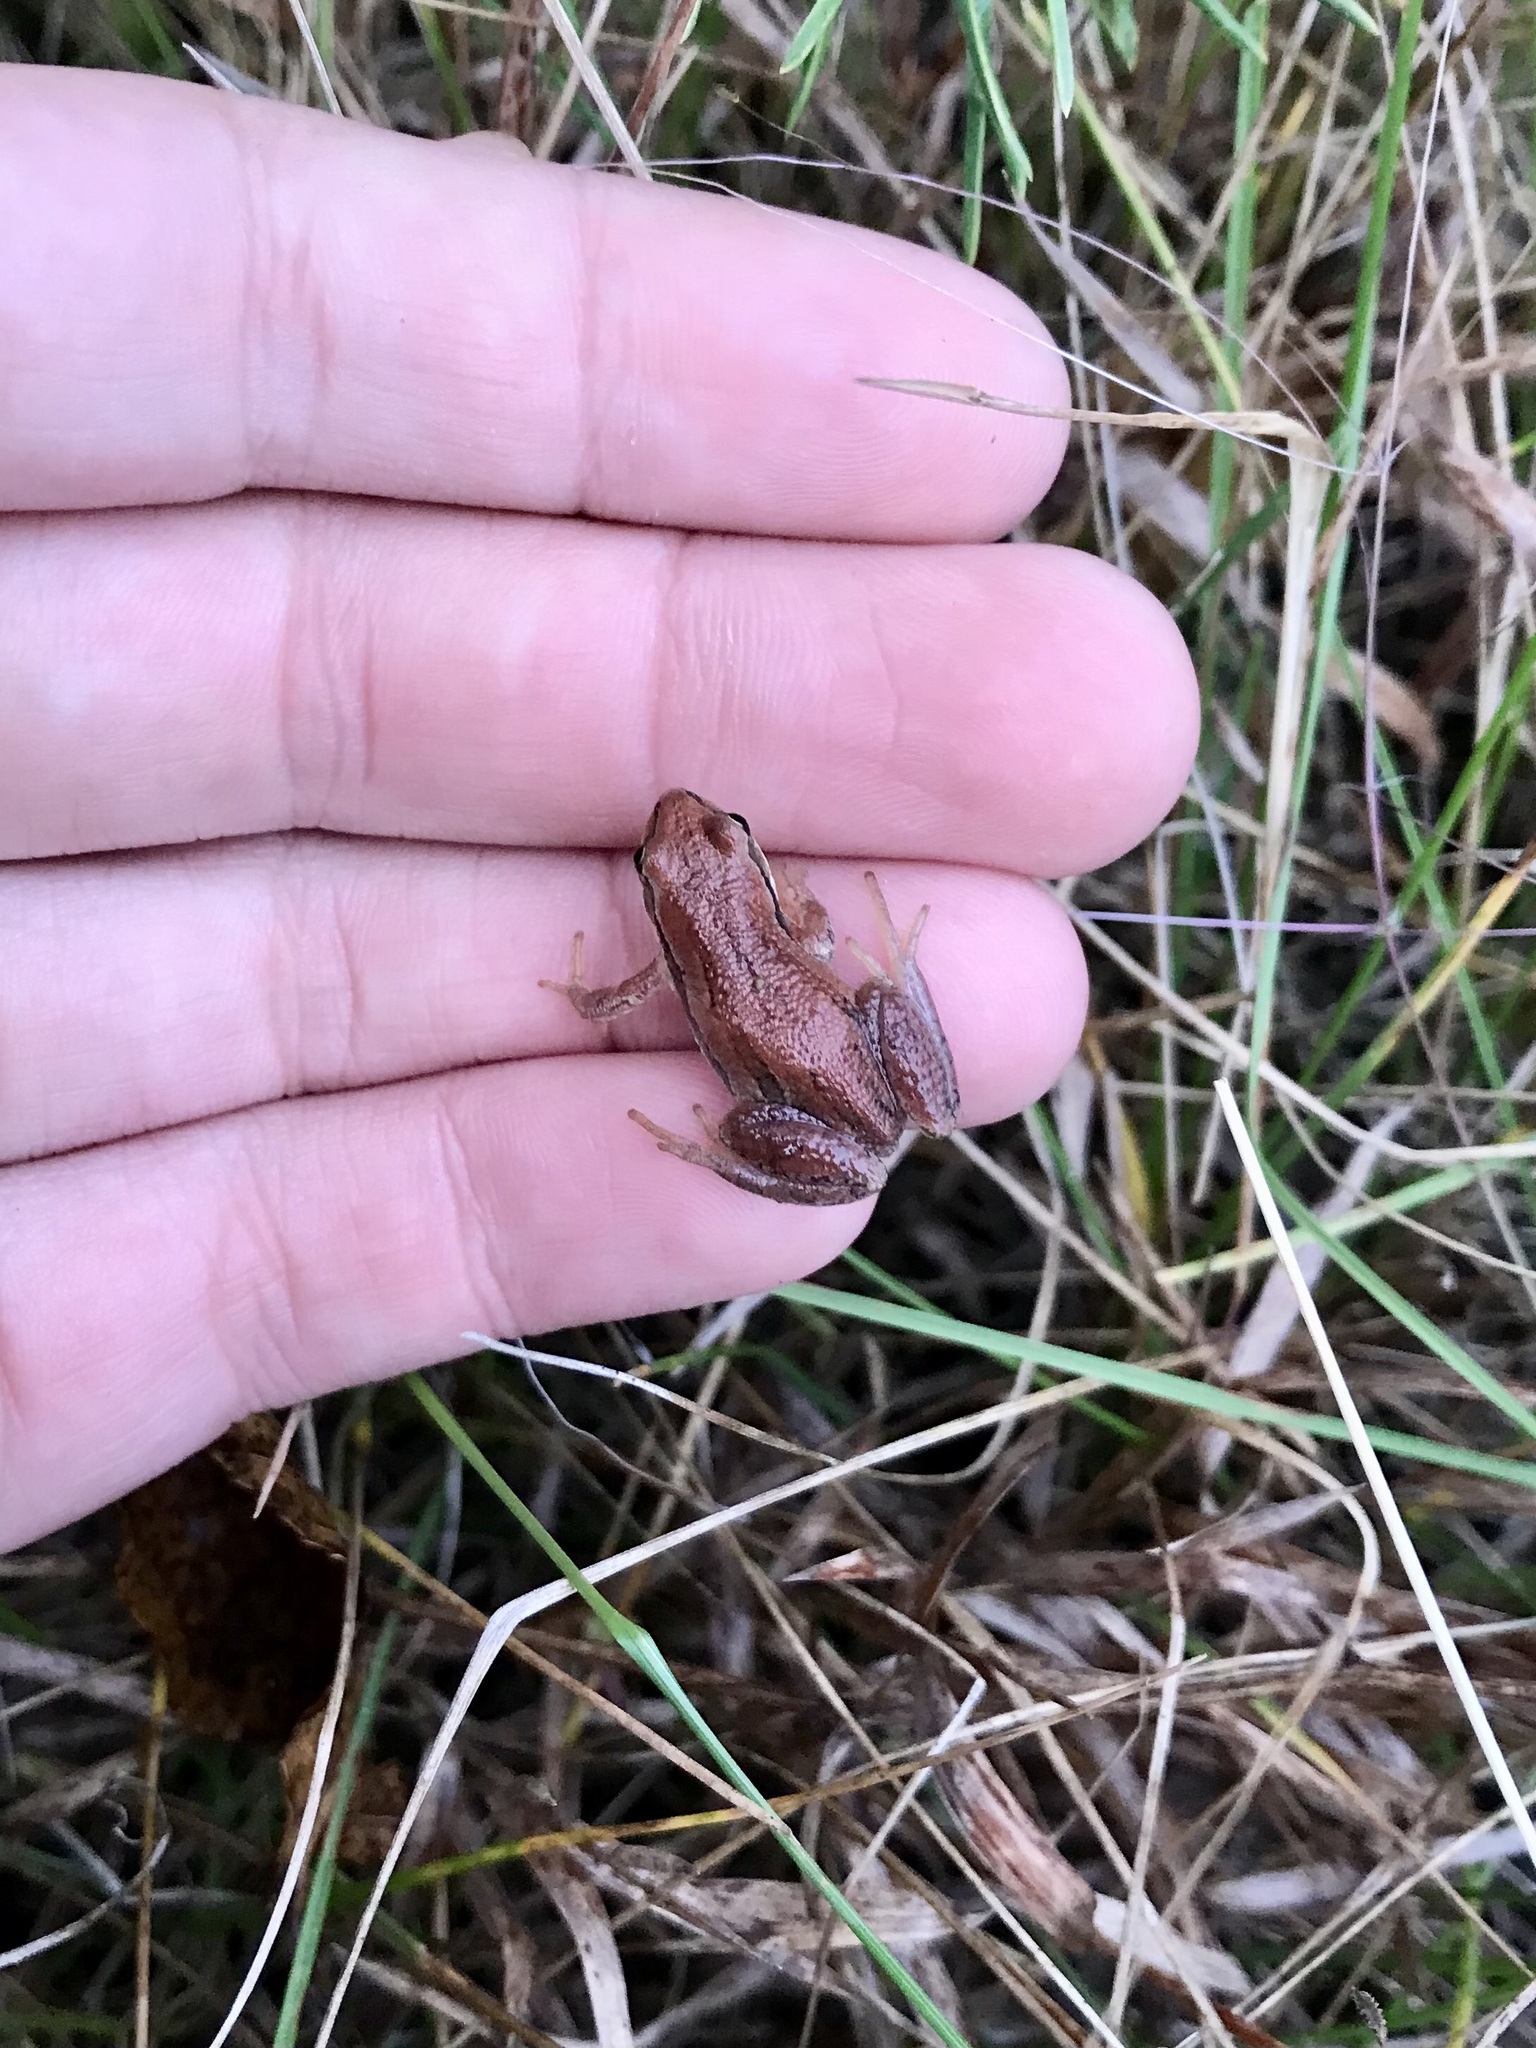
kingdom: Animalia
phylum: Chordata
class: Amphibia
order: Anura
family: Hylidae
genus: Pseudacris
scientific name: Pseudacris maculata
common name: Boreal chorus frog
